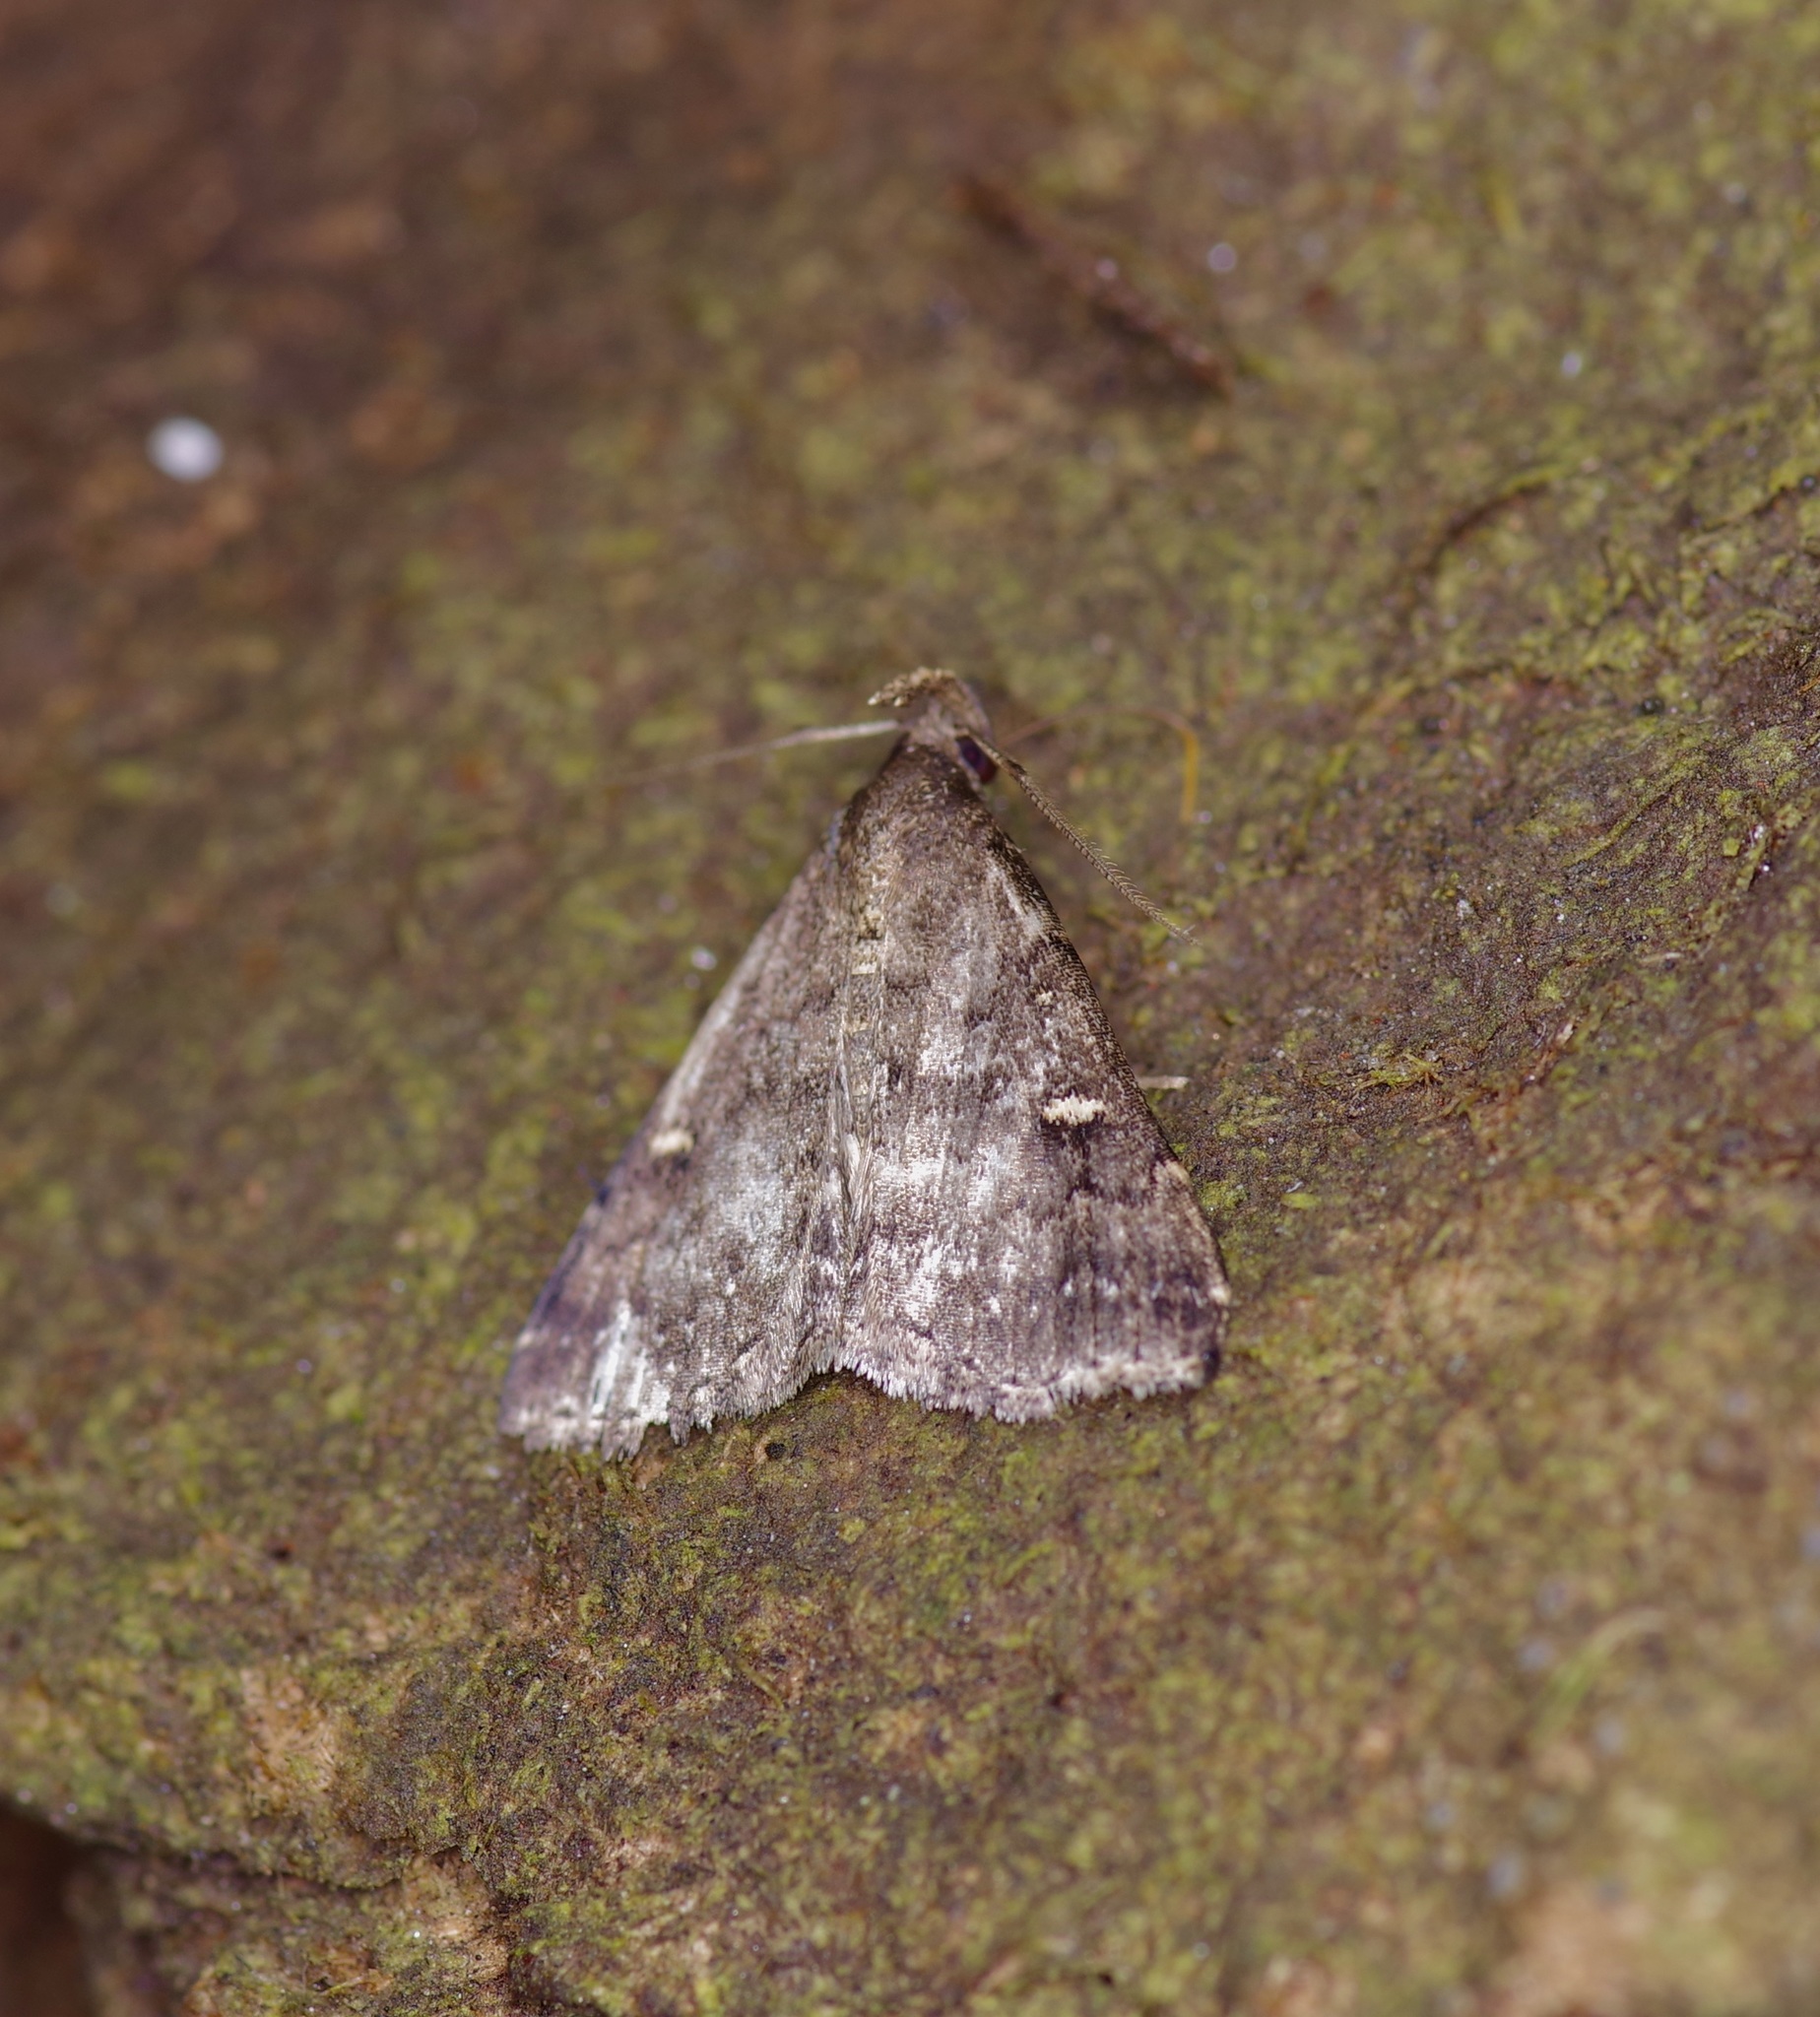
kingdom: Animalia
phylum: Arthropoda
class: Insecta
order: Lepidoptera
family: Erebidae
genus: Tetanolita
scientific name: Tetanolita mynesalis
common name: Smoky tetanolita moth
